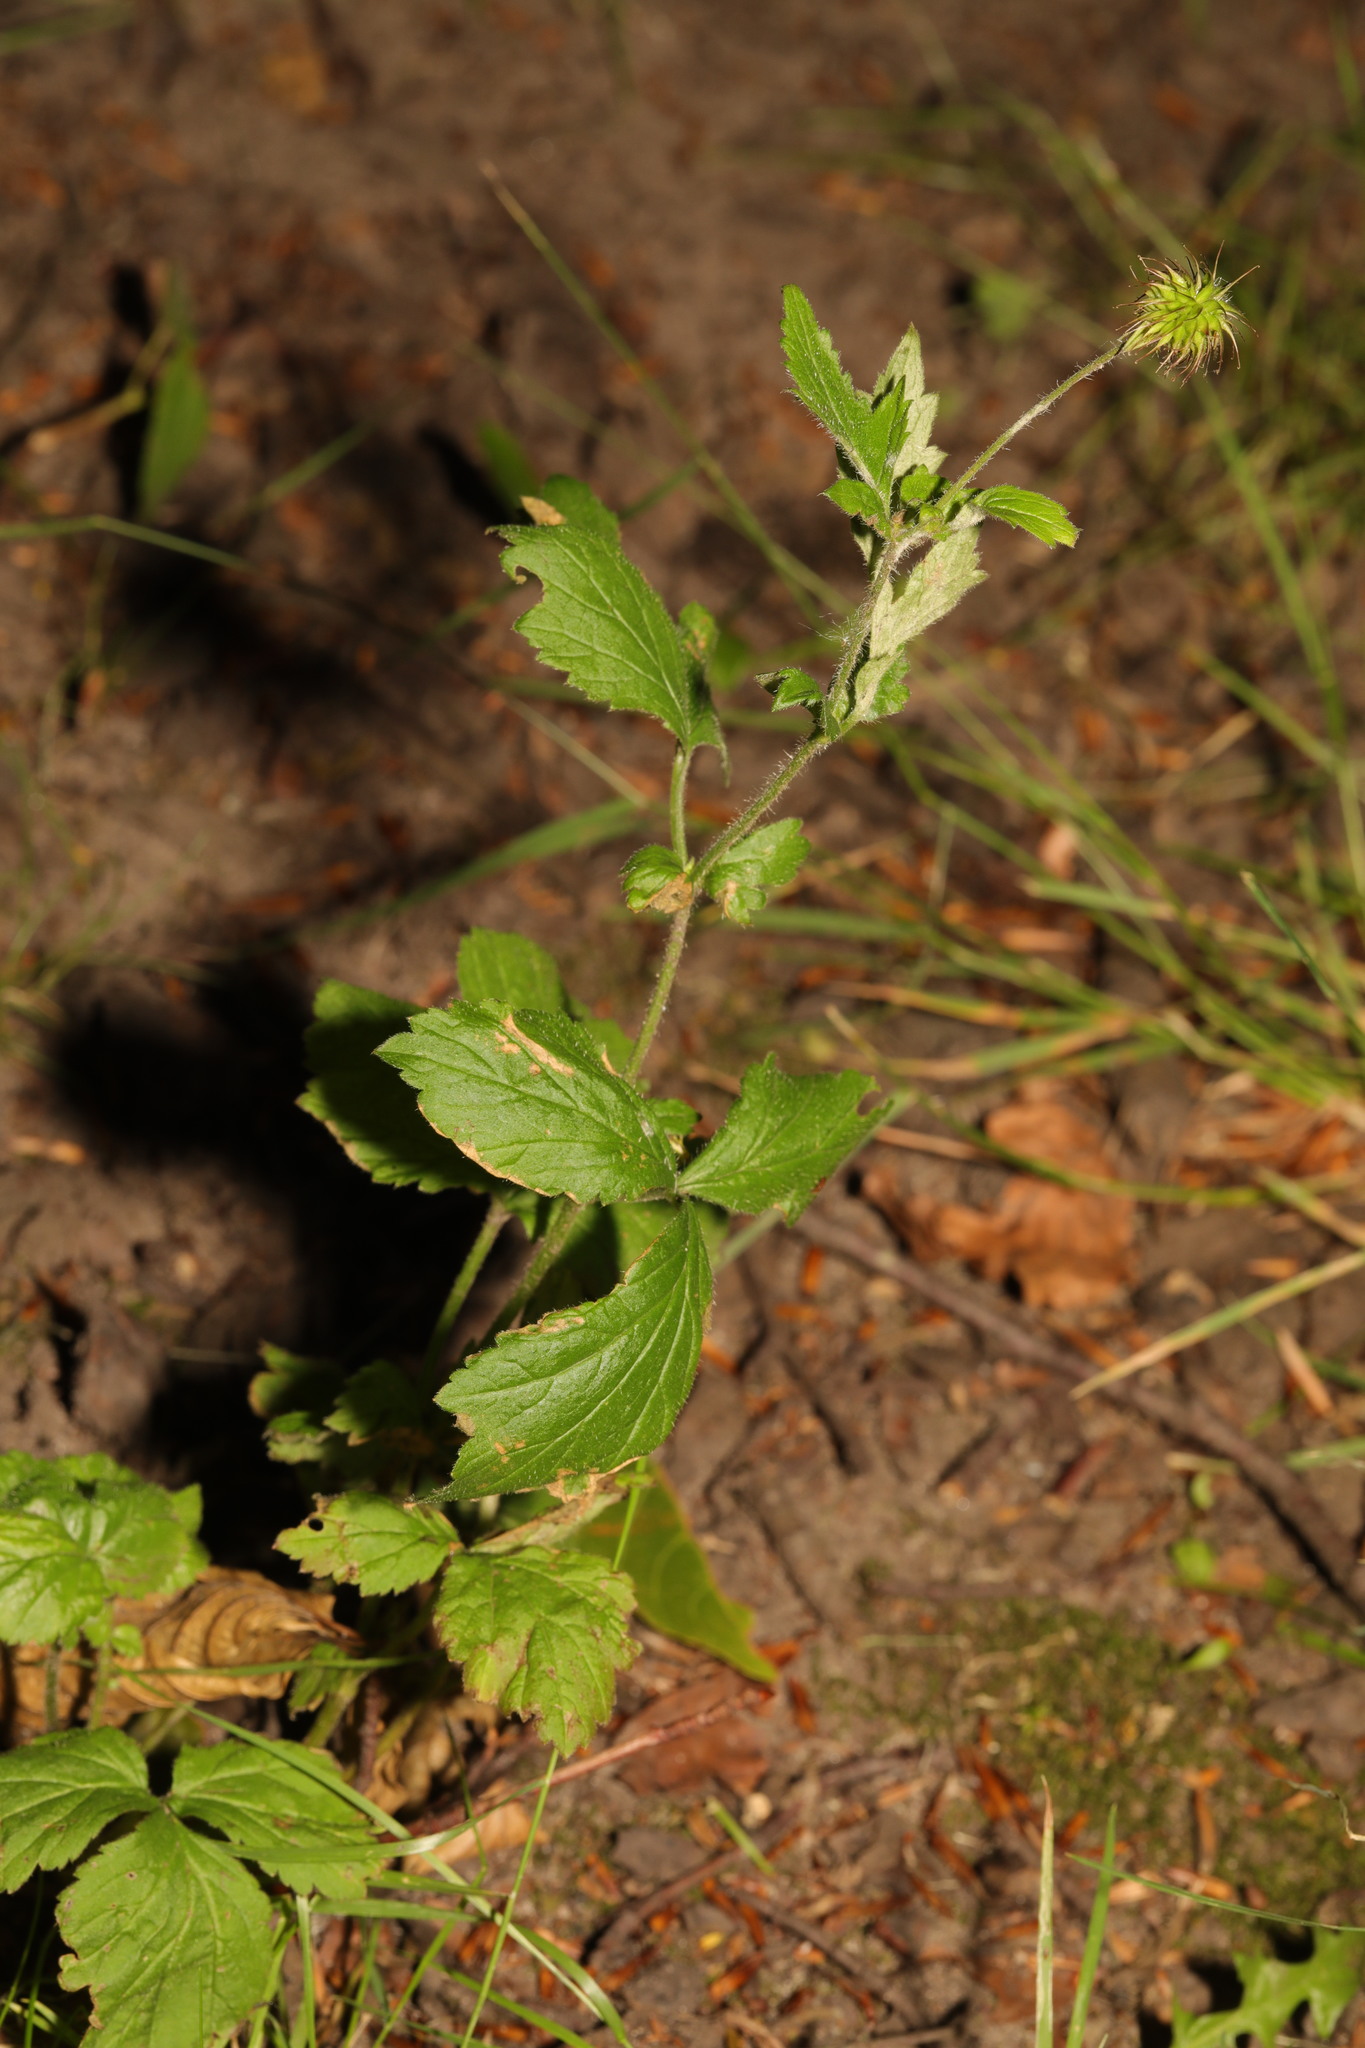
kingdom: Plantae
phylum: Tracheophyta
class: Magnoliopsida
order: Rosales
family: Rosaceae
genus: Geum
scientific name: Geum urbanum
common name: Wood avens
